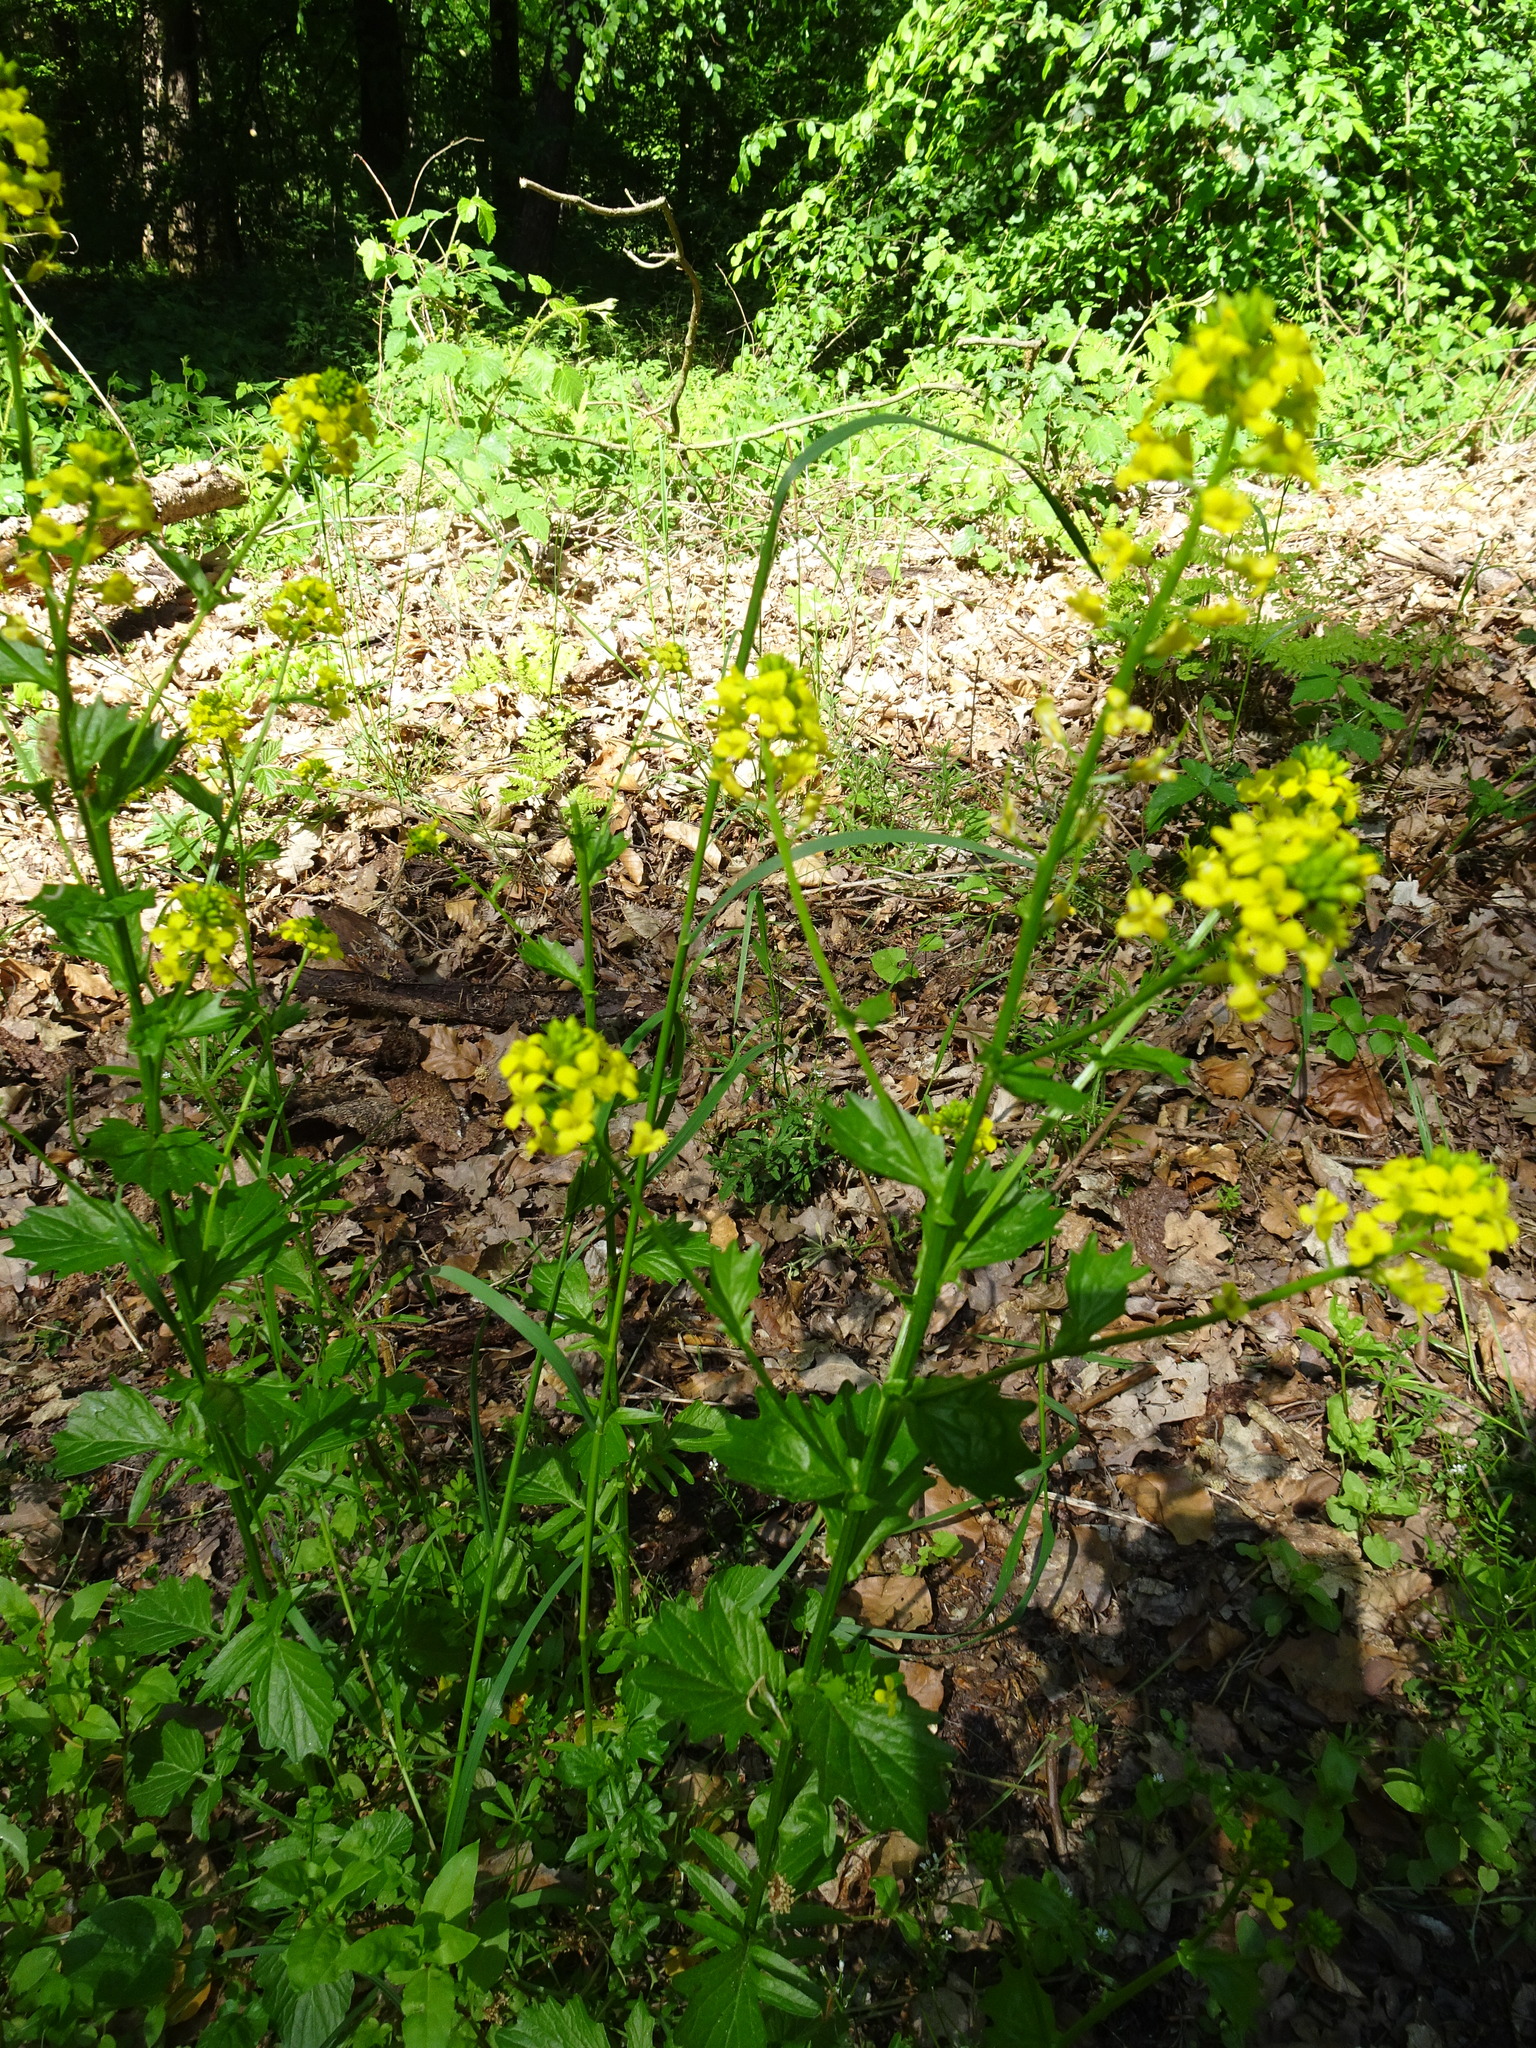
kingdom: Plantae
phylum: Tracheophyta
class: Magnoliopsida
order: Brassicales
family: Brassicaceae
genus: Barbarea
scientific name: Barbarea vulgaris
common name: Cressy-greens
